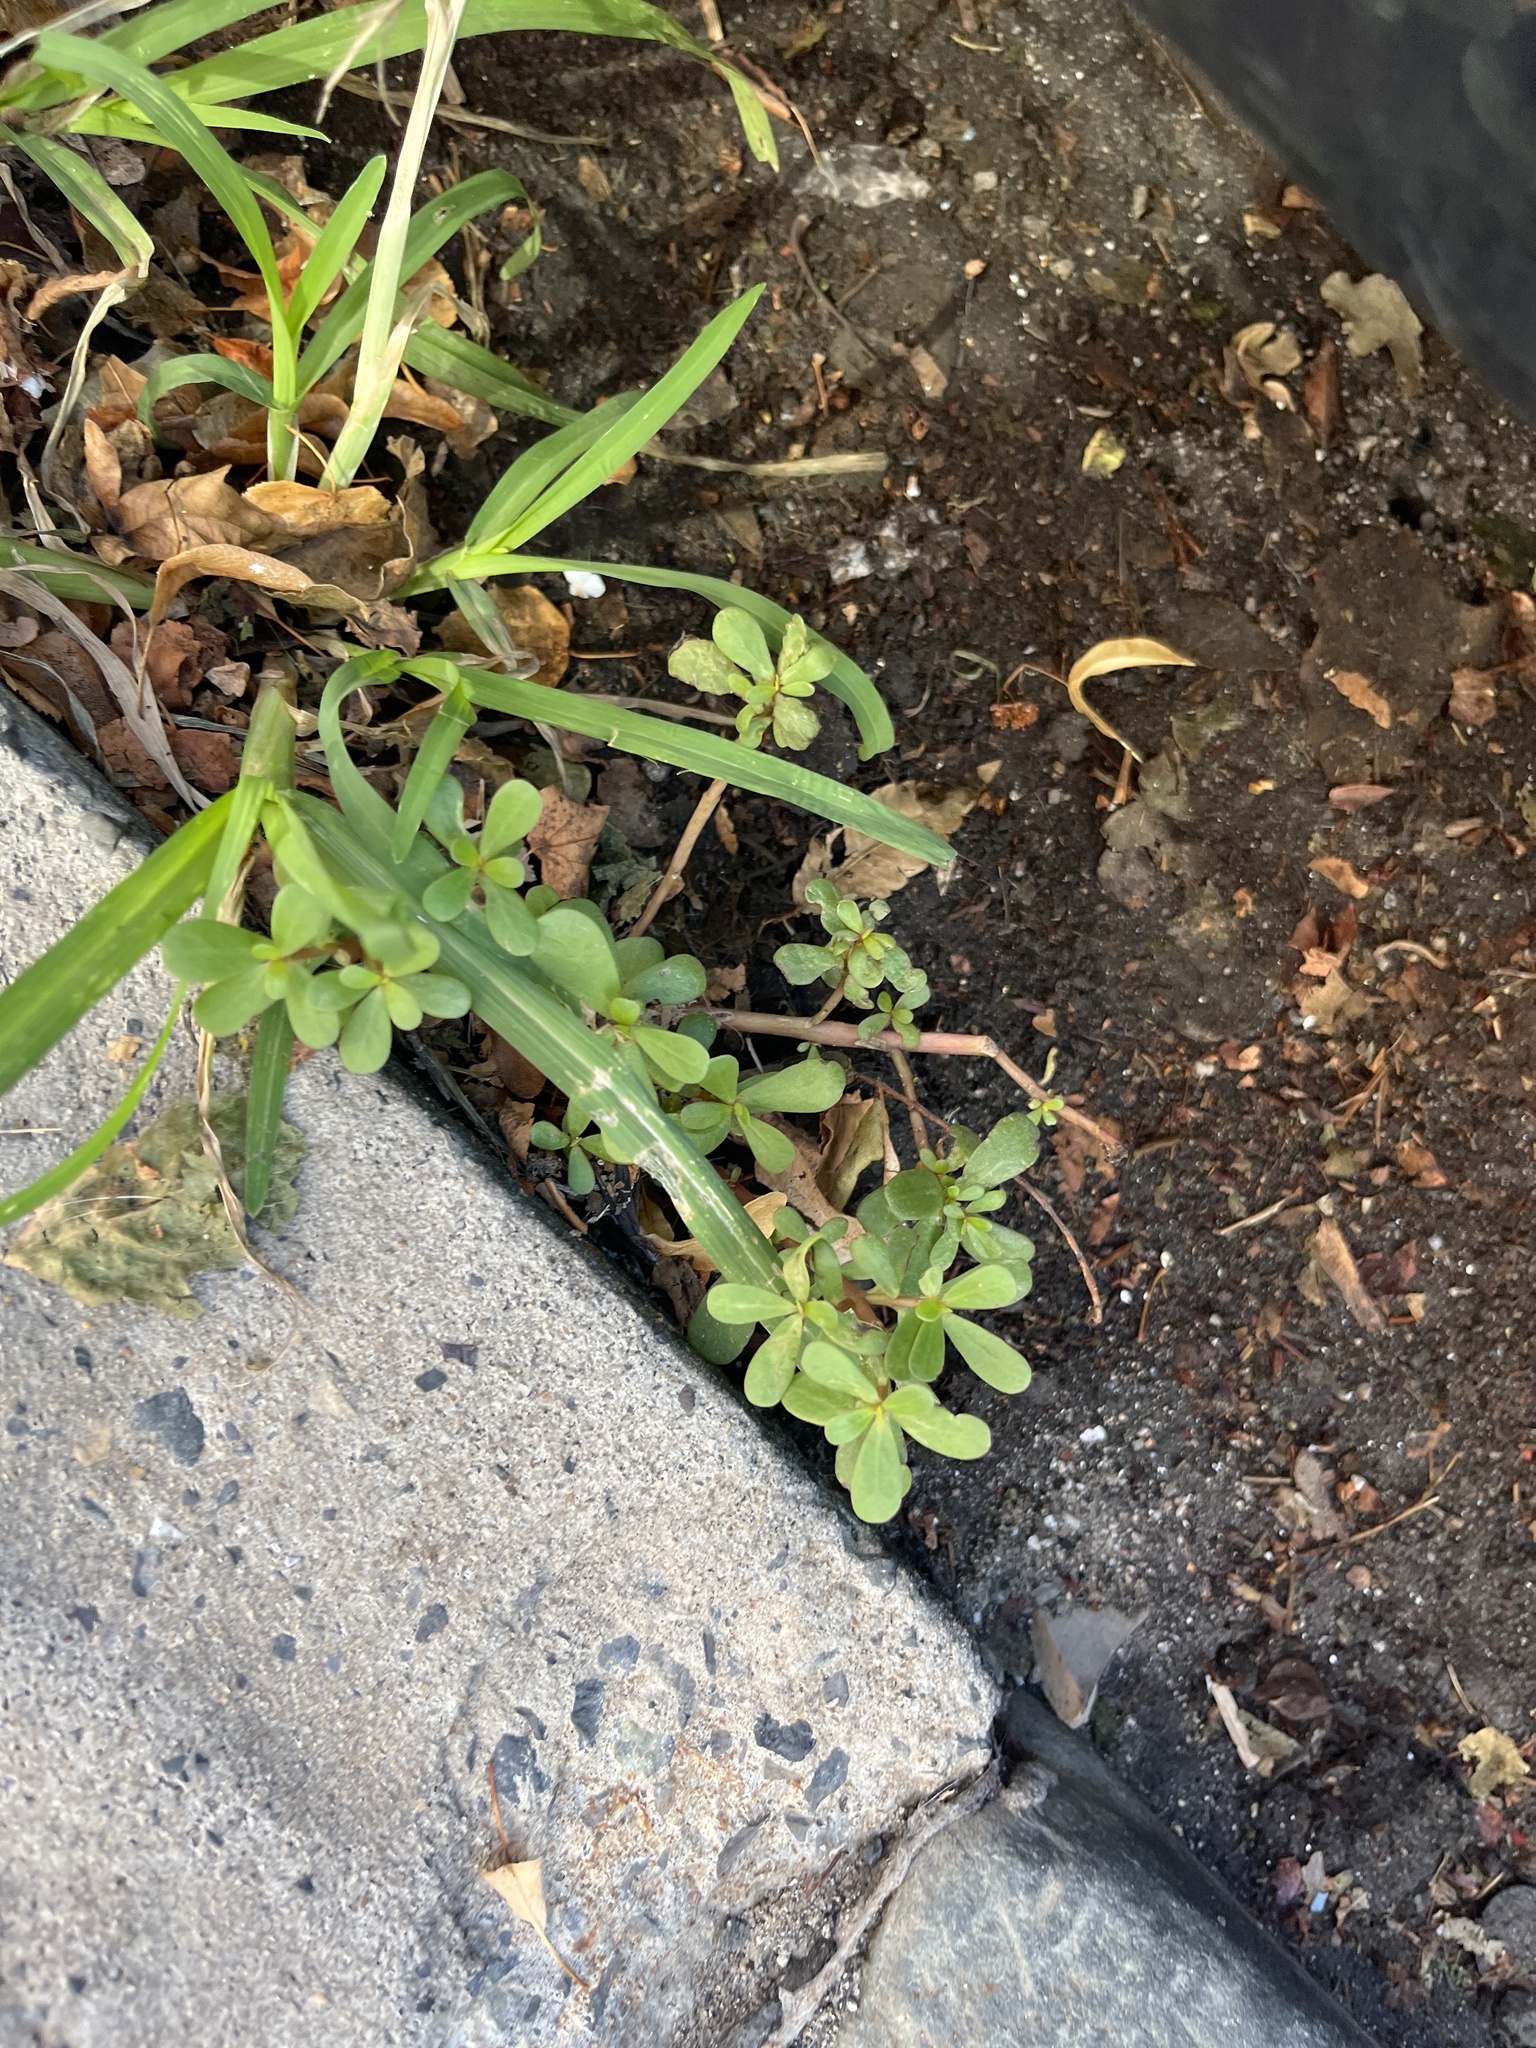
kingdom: Plantae
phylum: Tracheophyta
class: Magnoliopsida
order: Caryophyllales
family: Portulacaceae
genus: Portulaca
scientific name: Portulaca oleracea
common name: Common purslane
